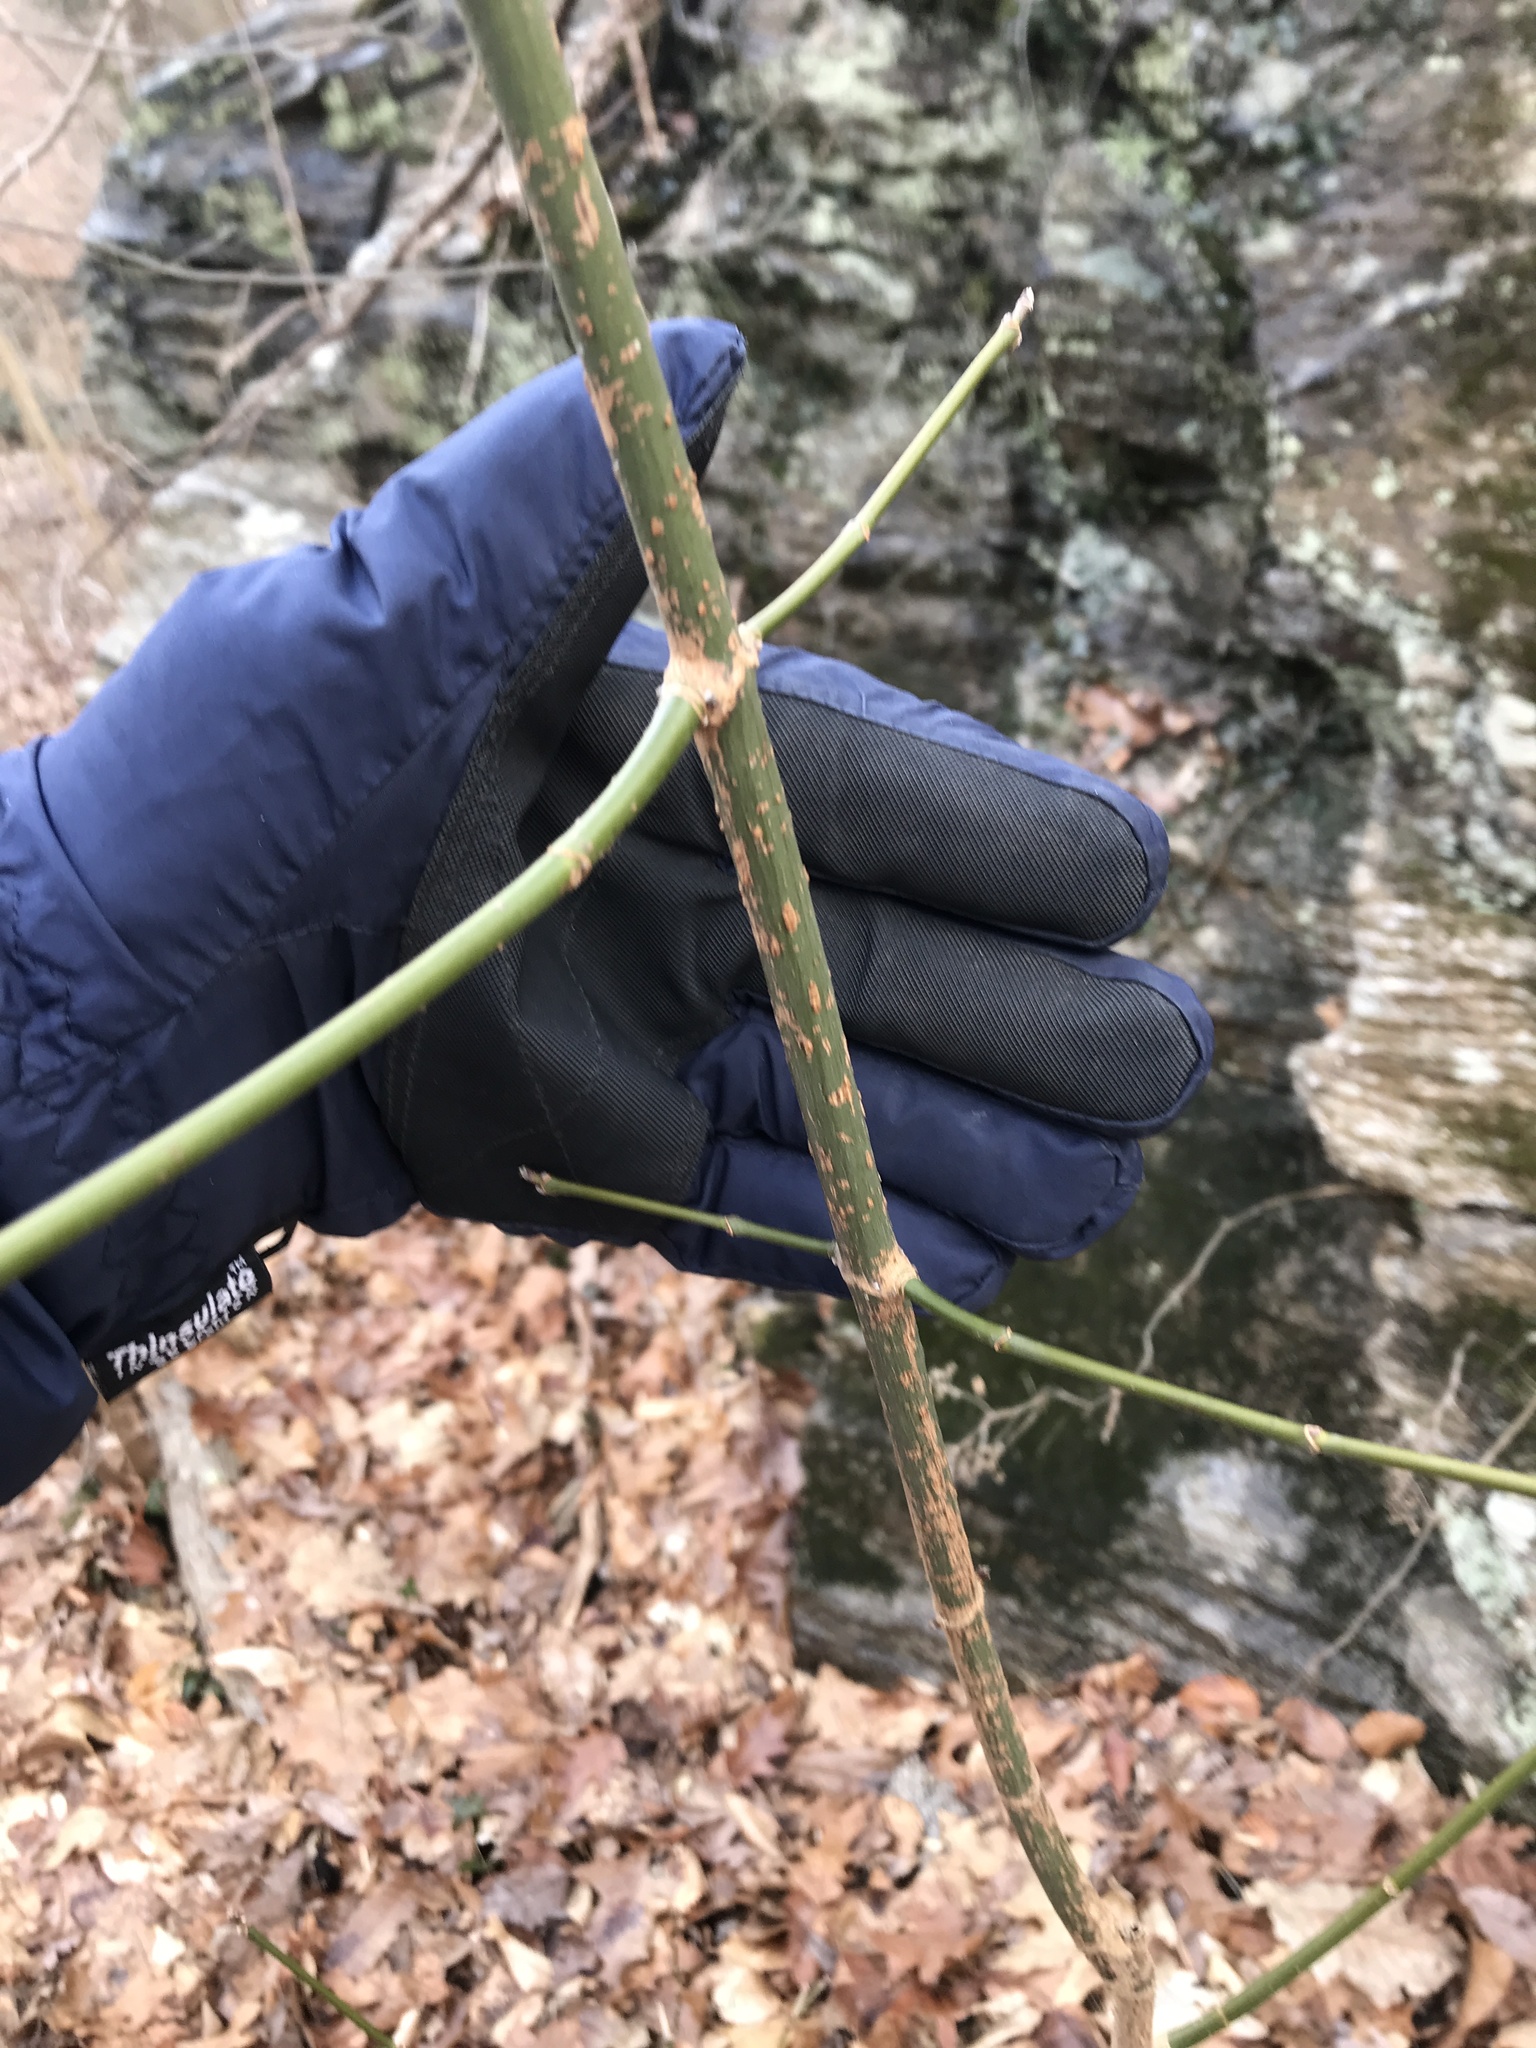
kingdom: Plantae
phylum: Tracheophyta
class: Magnoliopsida
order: Sapindales
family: Sapindaceae
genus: Acer
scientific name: Acer negundo
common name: Ashleaf maple
